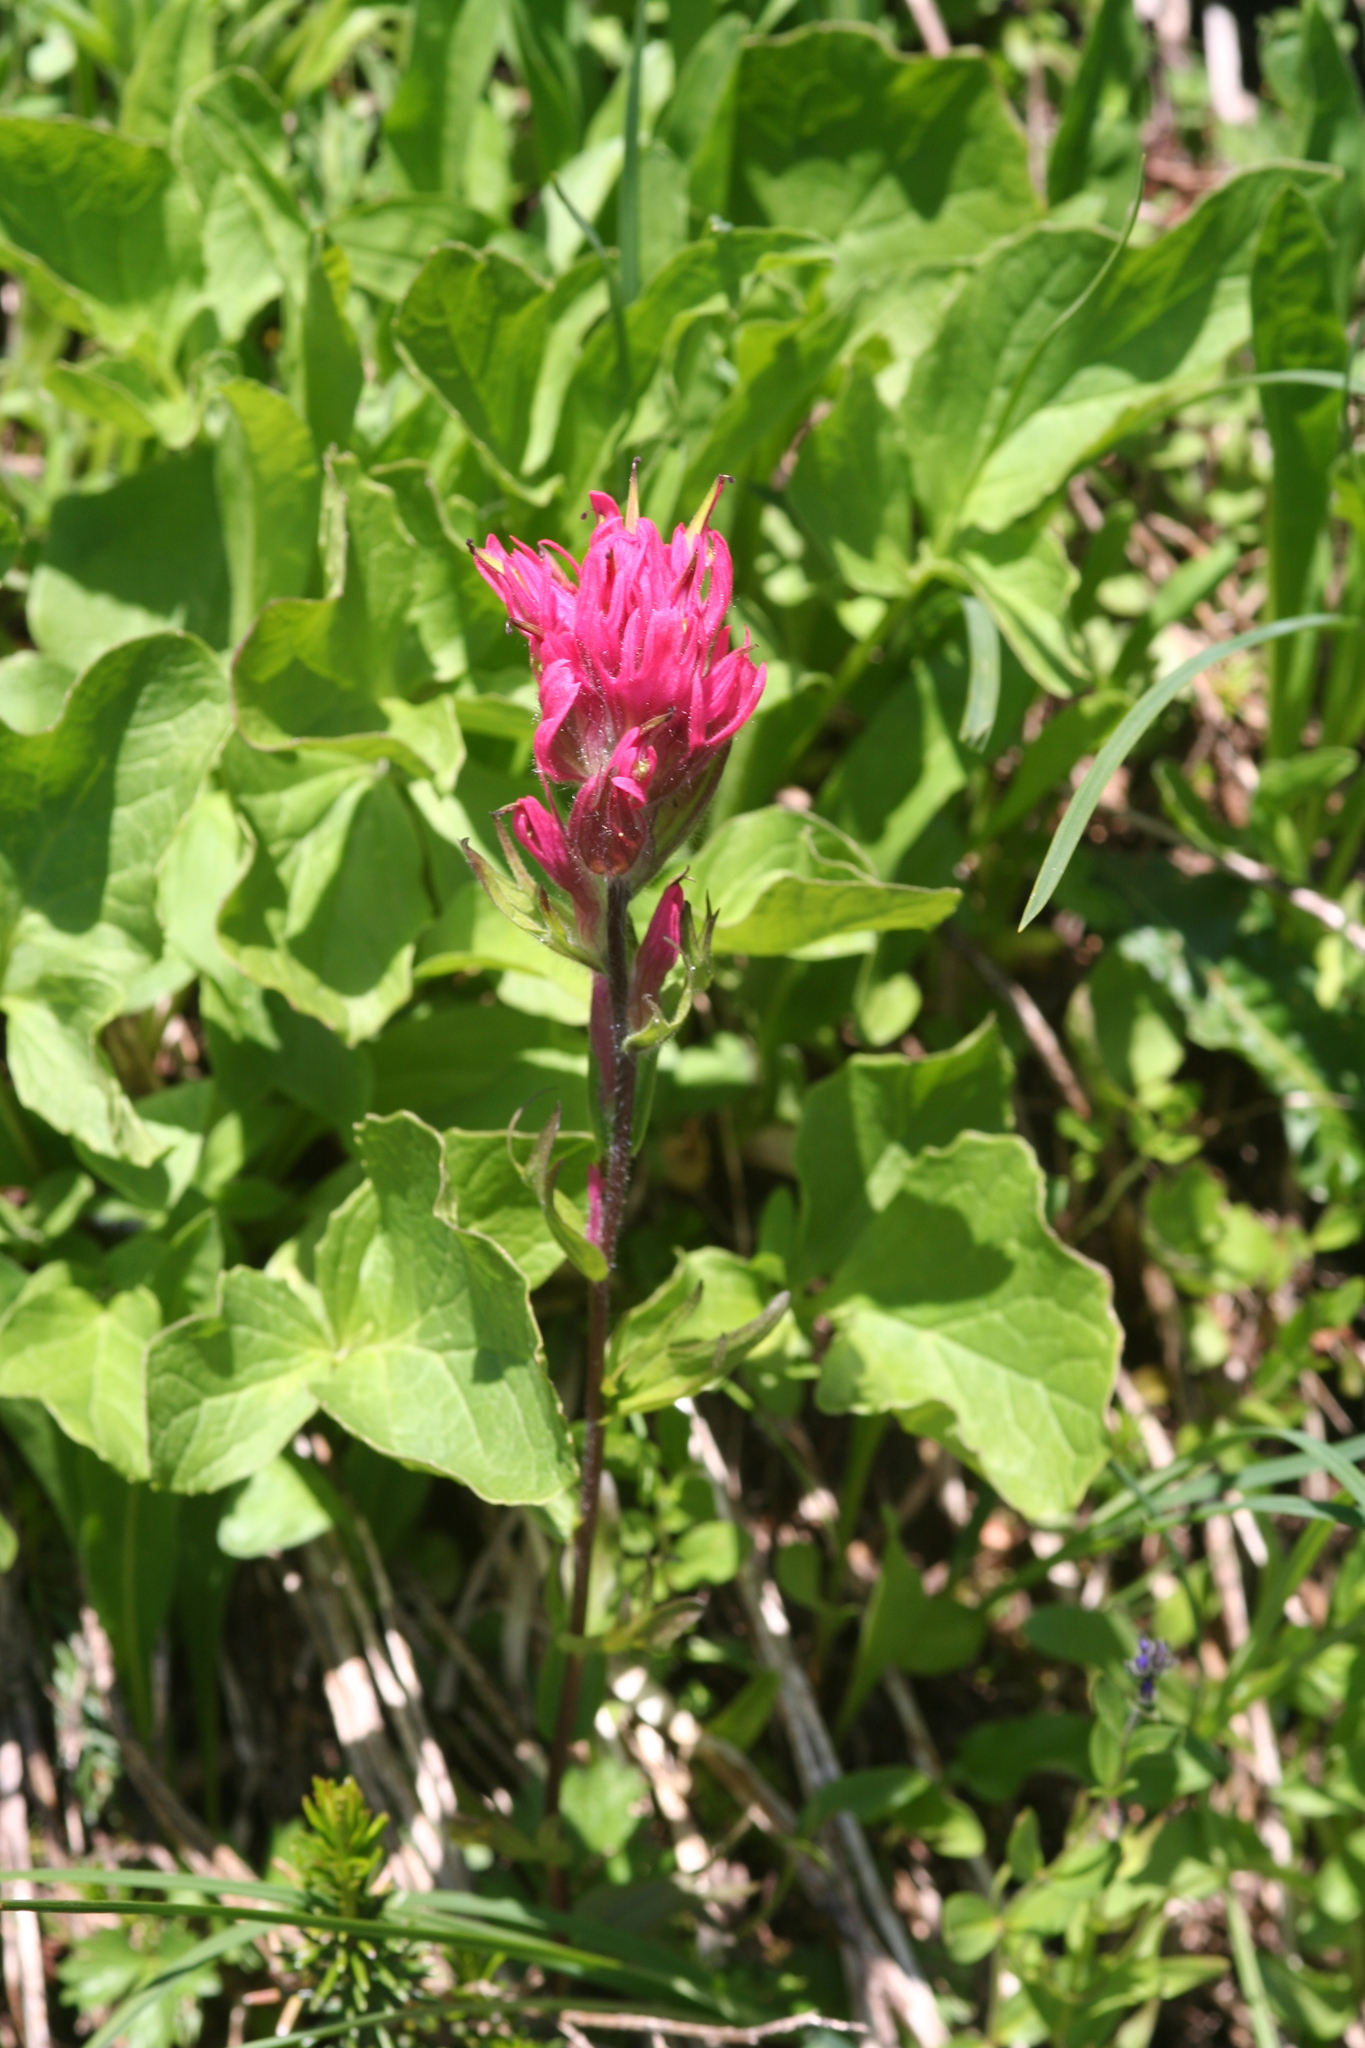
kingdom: Plantae
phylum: Tracheophyta
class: Magnoliopsida
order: Lamiales
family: Orobanchaceae
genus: Castilleja
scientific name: Castilleja parviflora
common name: Mountain paintbrush
